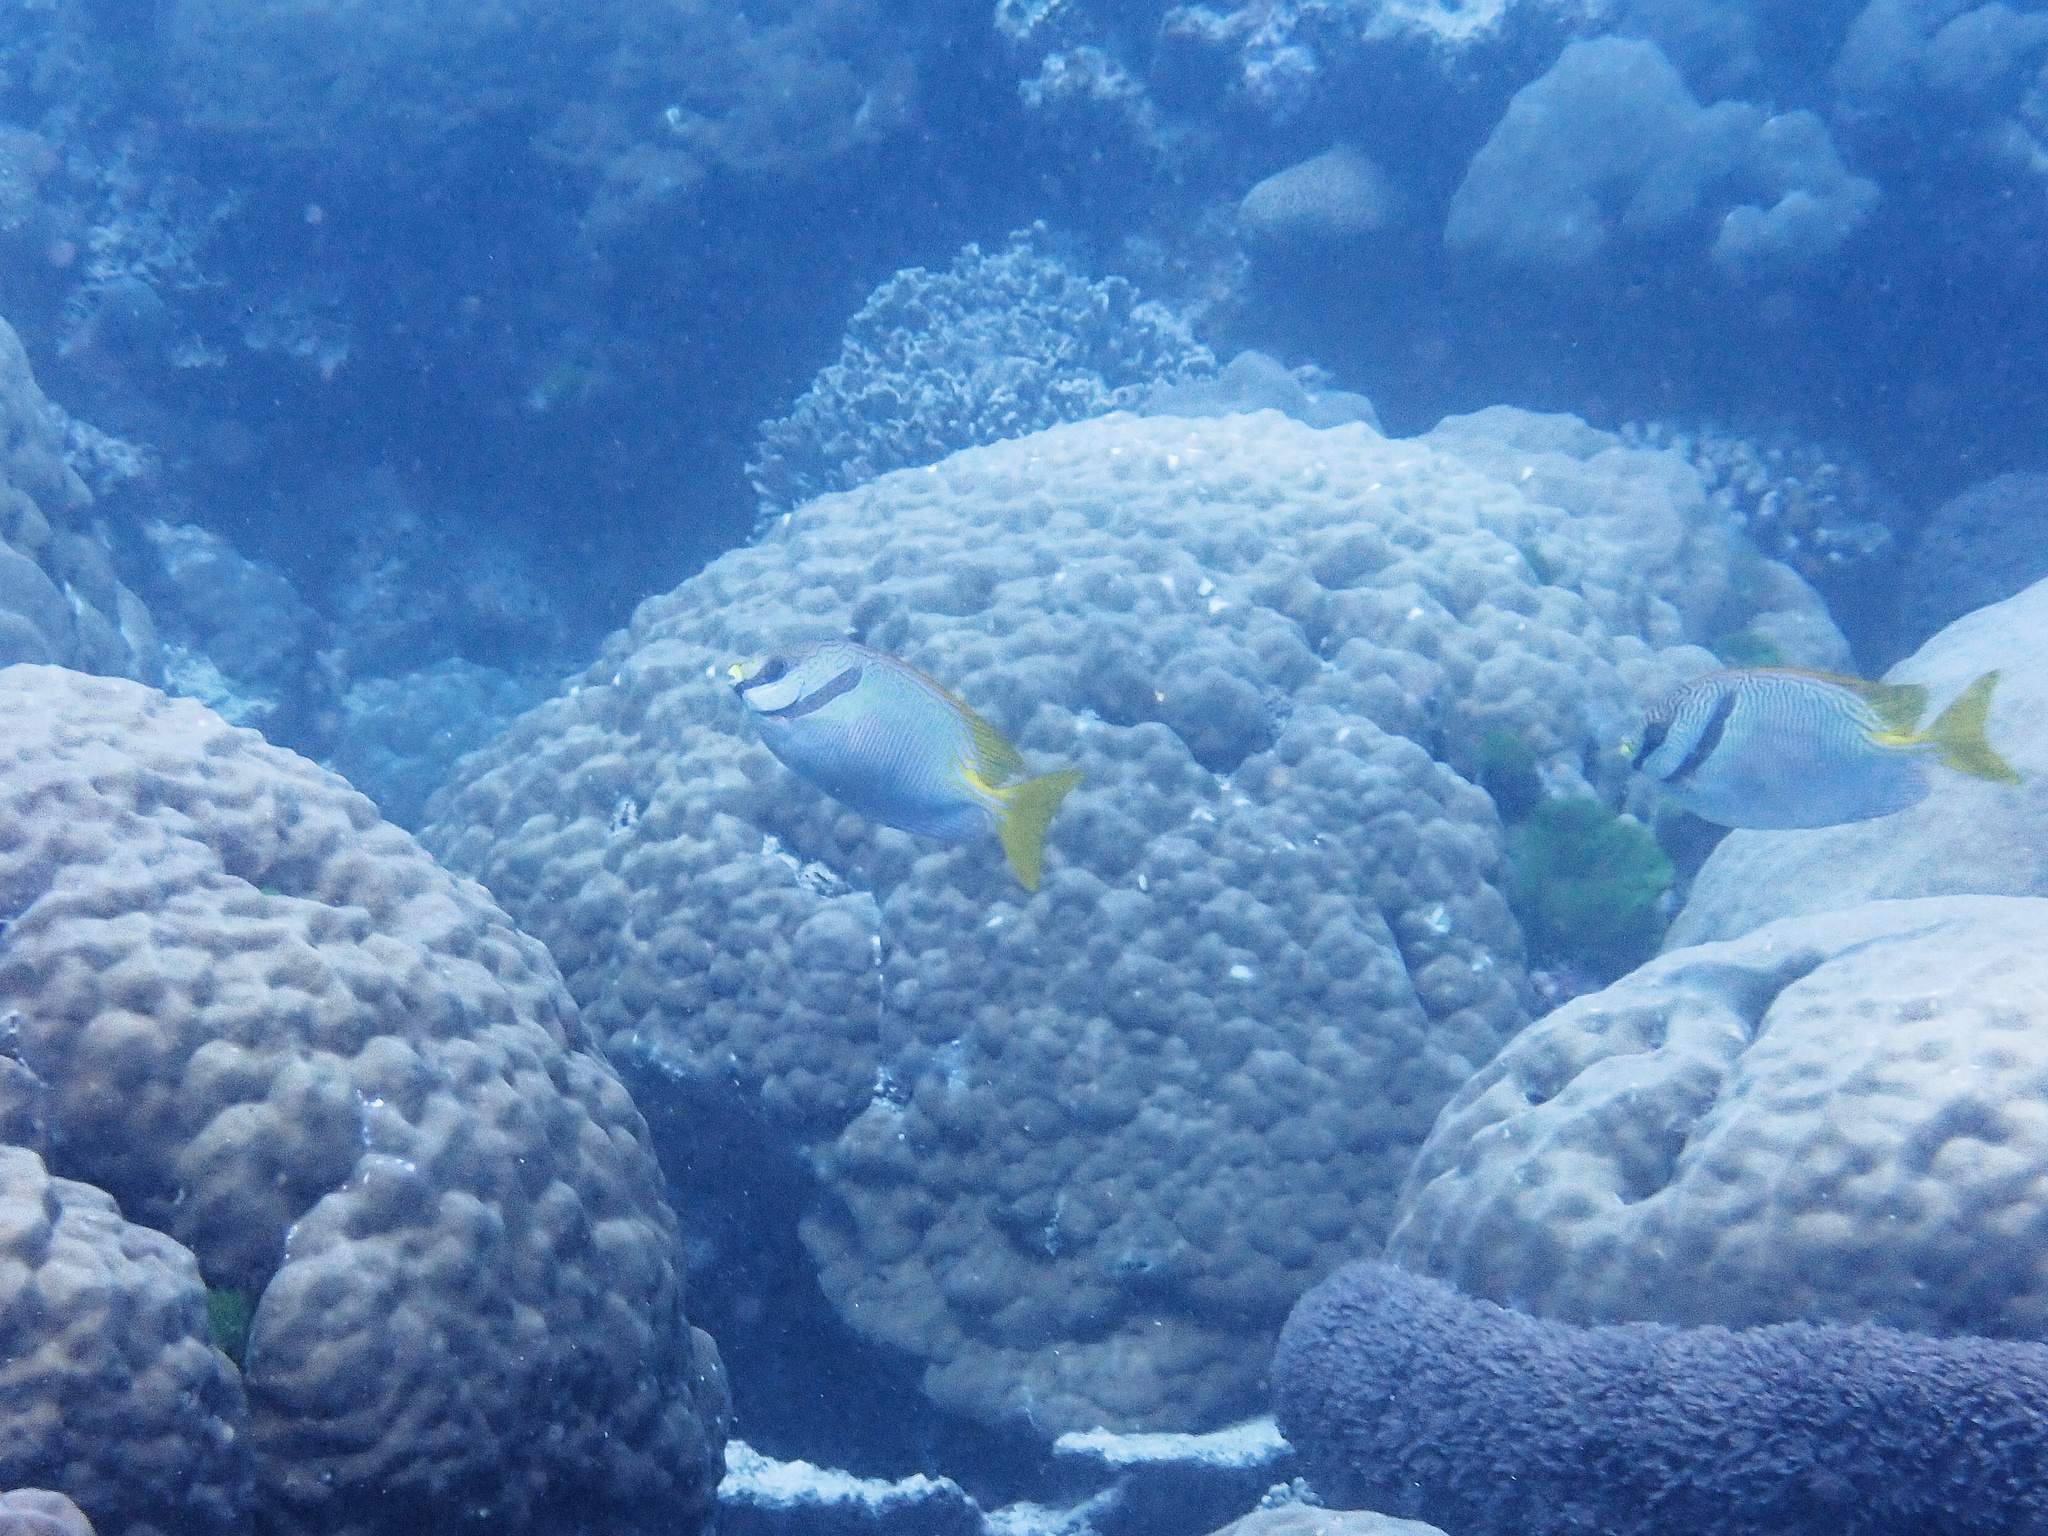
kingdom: Animalia
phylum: Chordata
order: Perciformes
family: Siganidae
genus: Siganus
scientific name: Siganus doliatus
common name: Barred spinefoot
